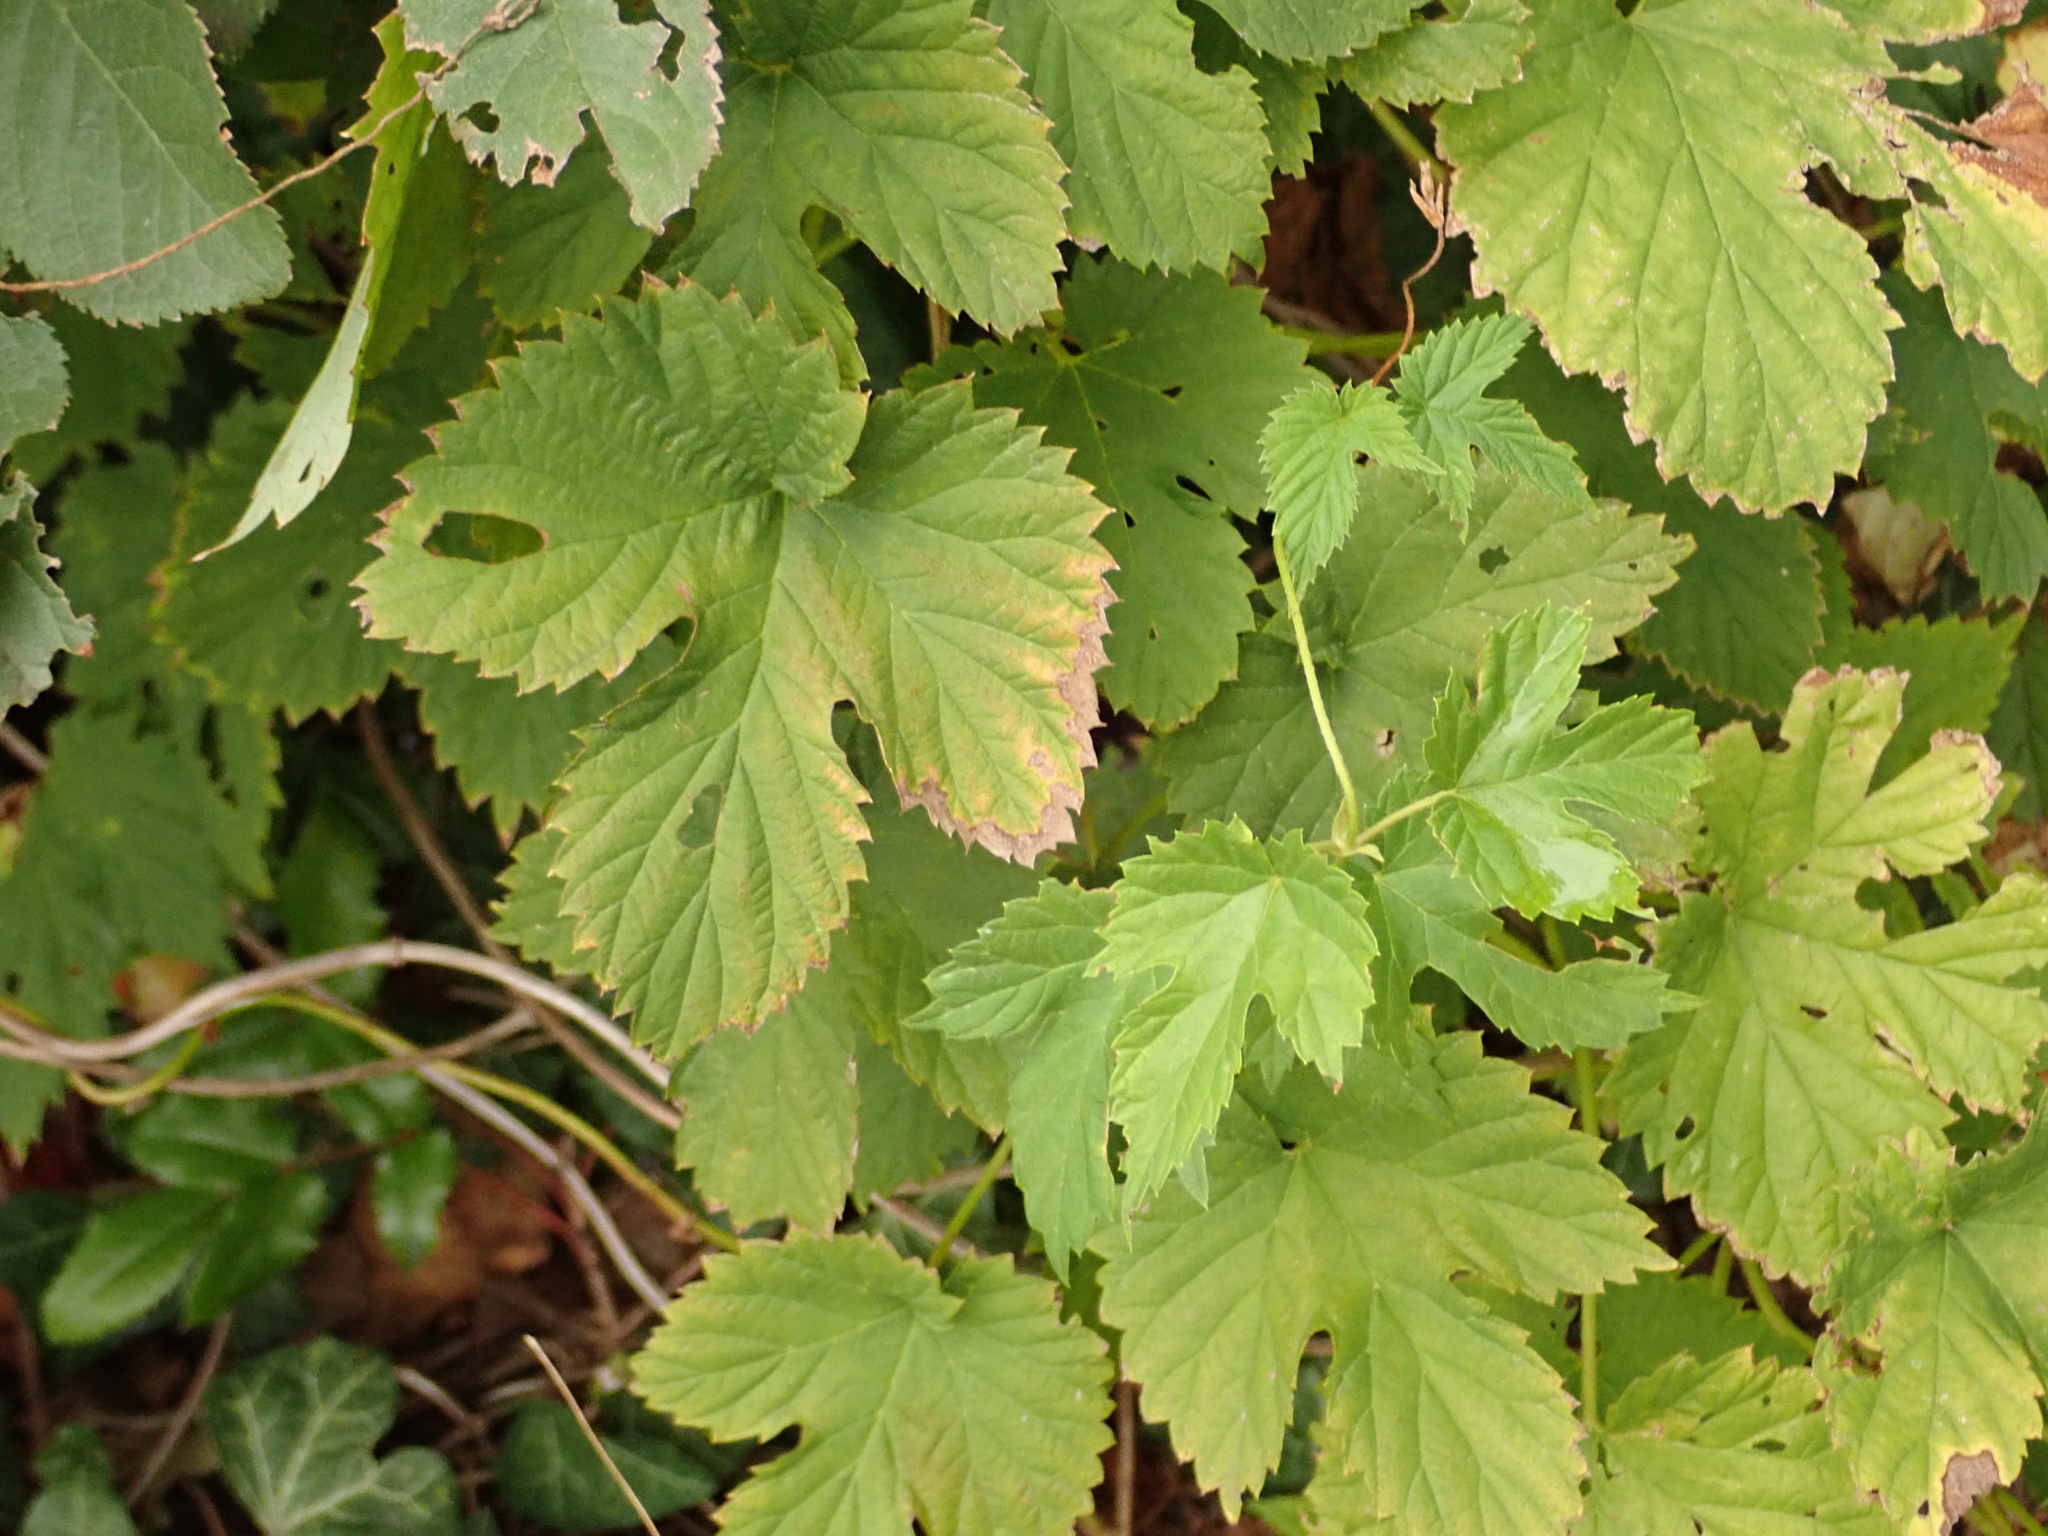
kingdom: Plantae
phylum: Tracheophyta
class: Magnoliopsida
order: Rosales
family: Cannabaceae
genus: Humulus
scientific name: Humulus lupulus
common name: Hop
